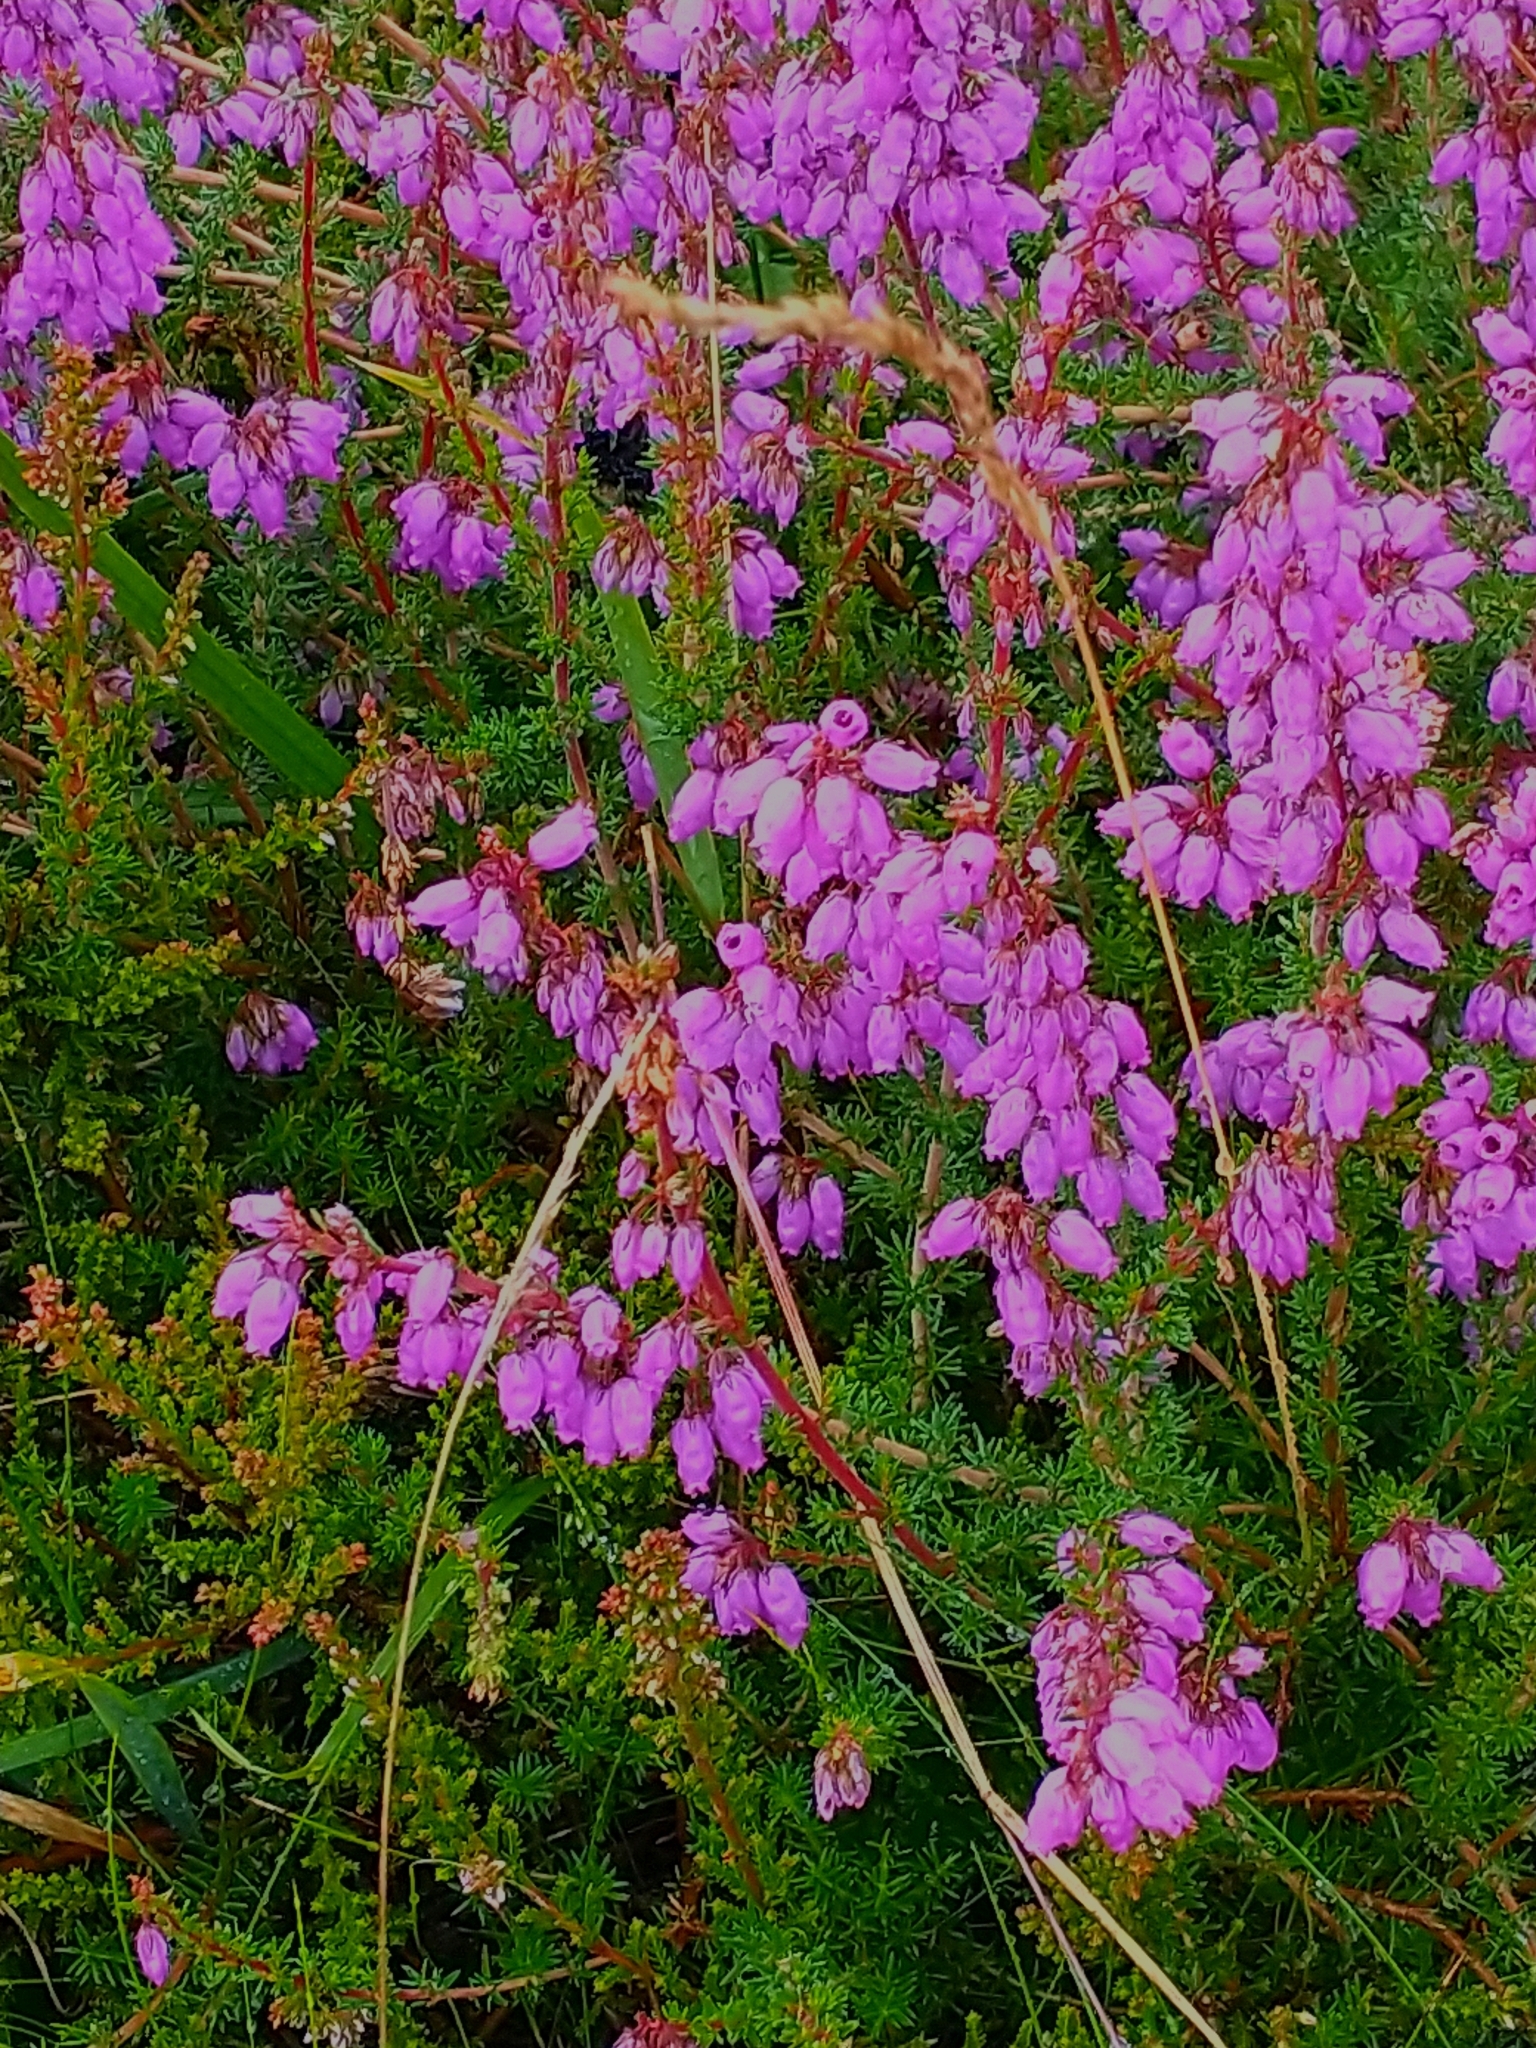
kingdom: Plantae
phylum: Tracheophyta
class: Magnoliopsida
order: Ericales
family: Ericaceae
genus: Erica
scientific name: Erica cinerea
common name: Bell heather
